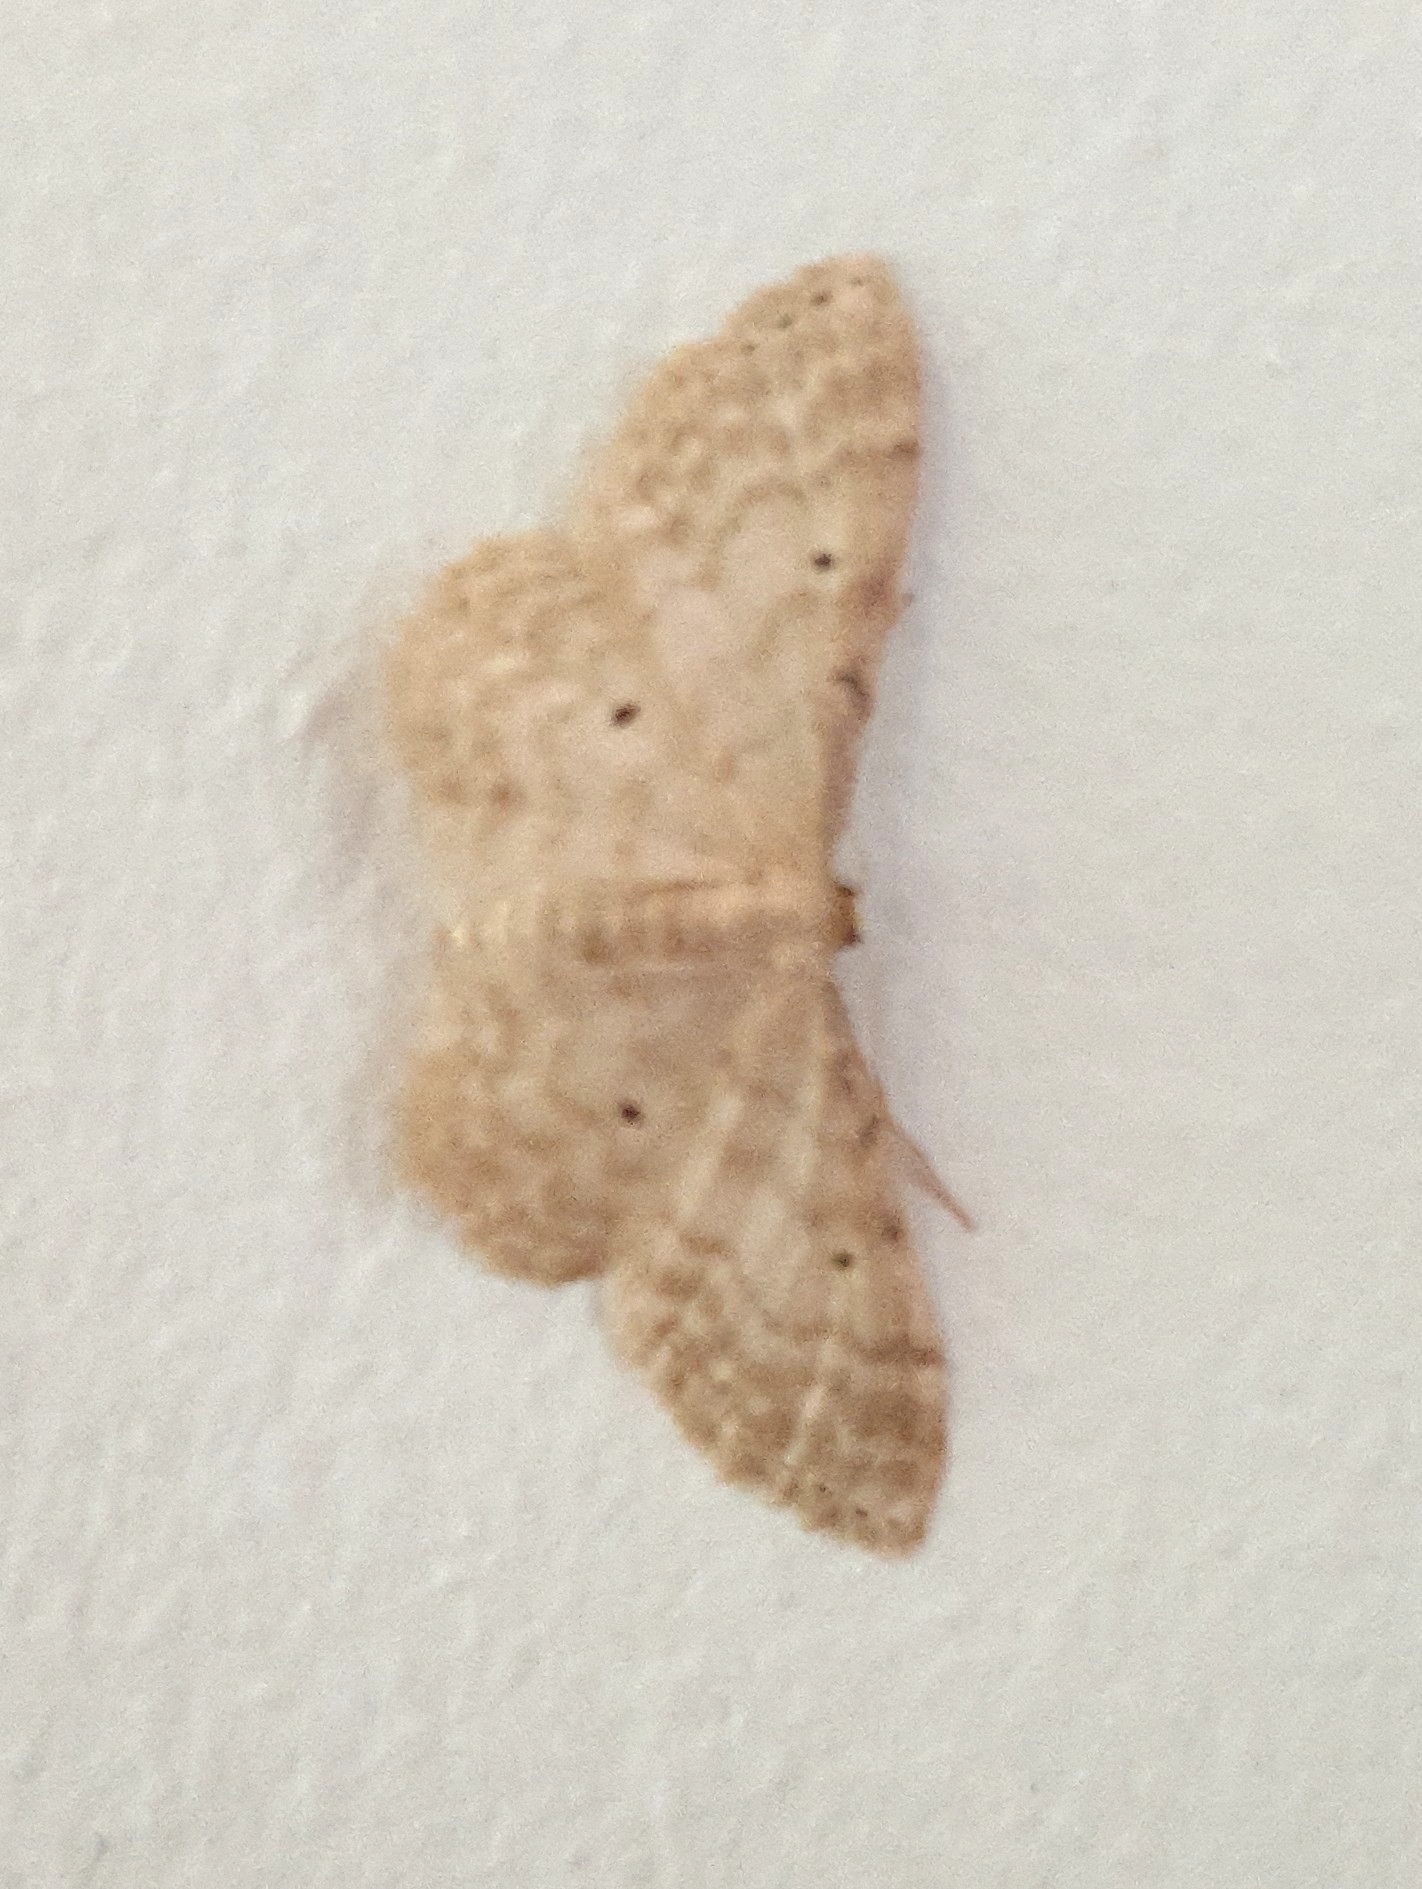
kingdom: Animalia
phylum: Arthropoda
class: Insecta
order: Lepidoptera
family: Geometridae
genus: Idaea
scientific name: Idaea fuscovenosa
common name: Dwarf cream wave
